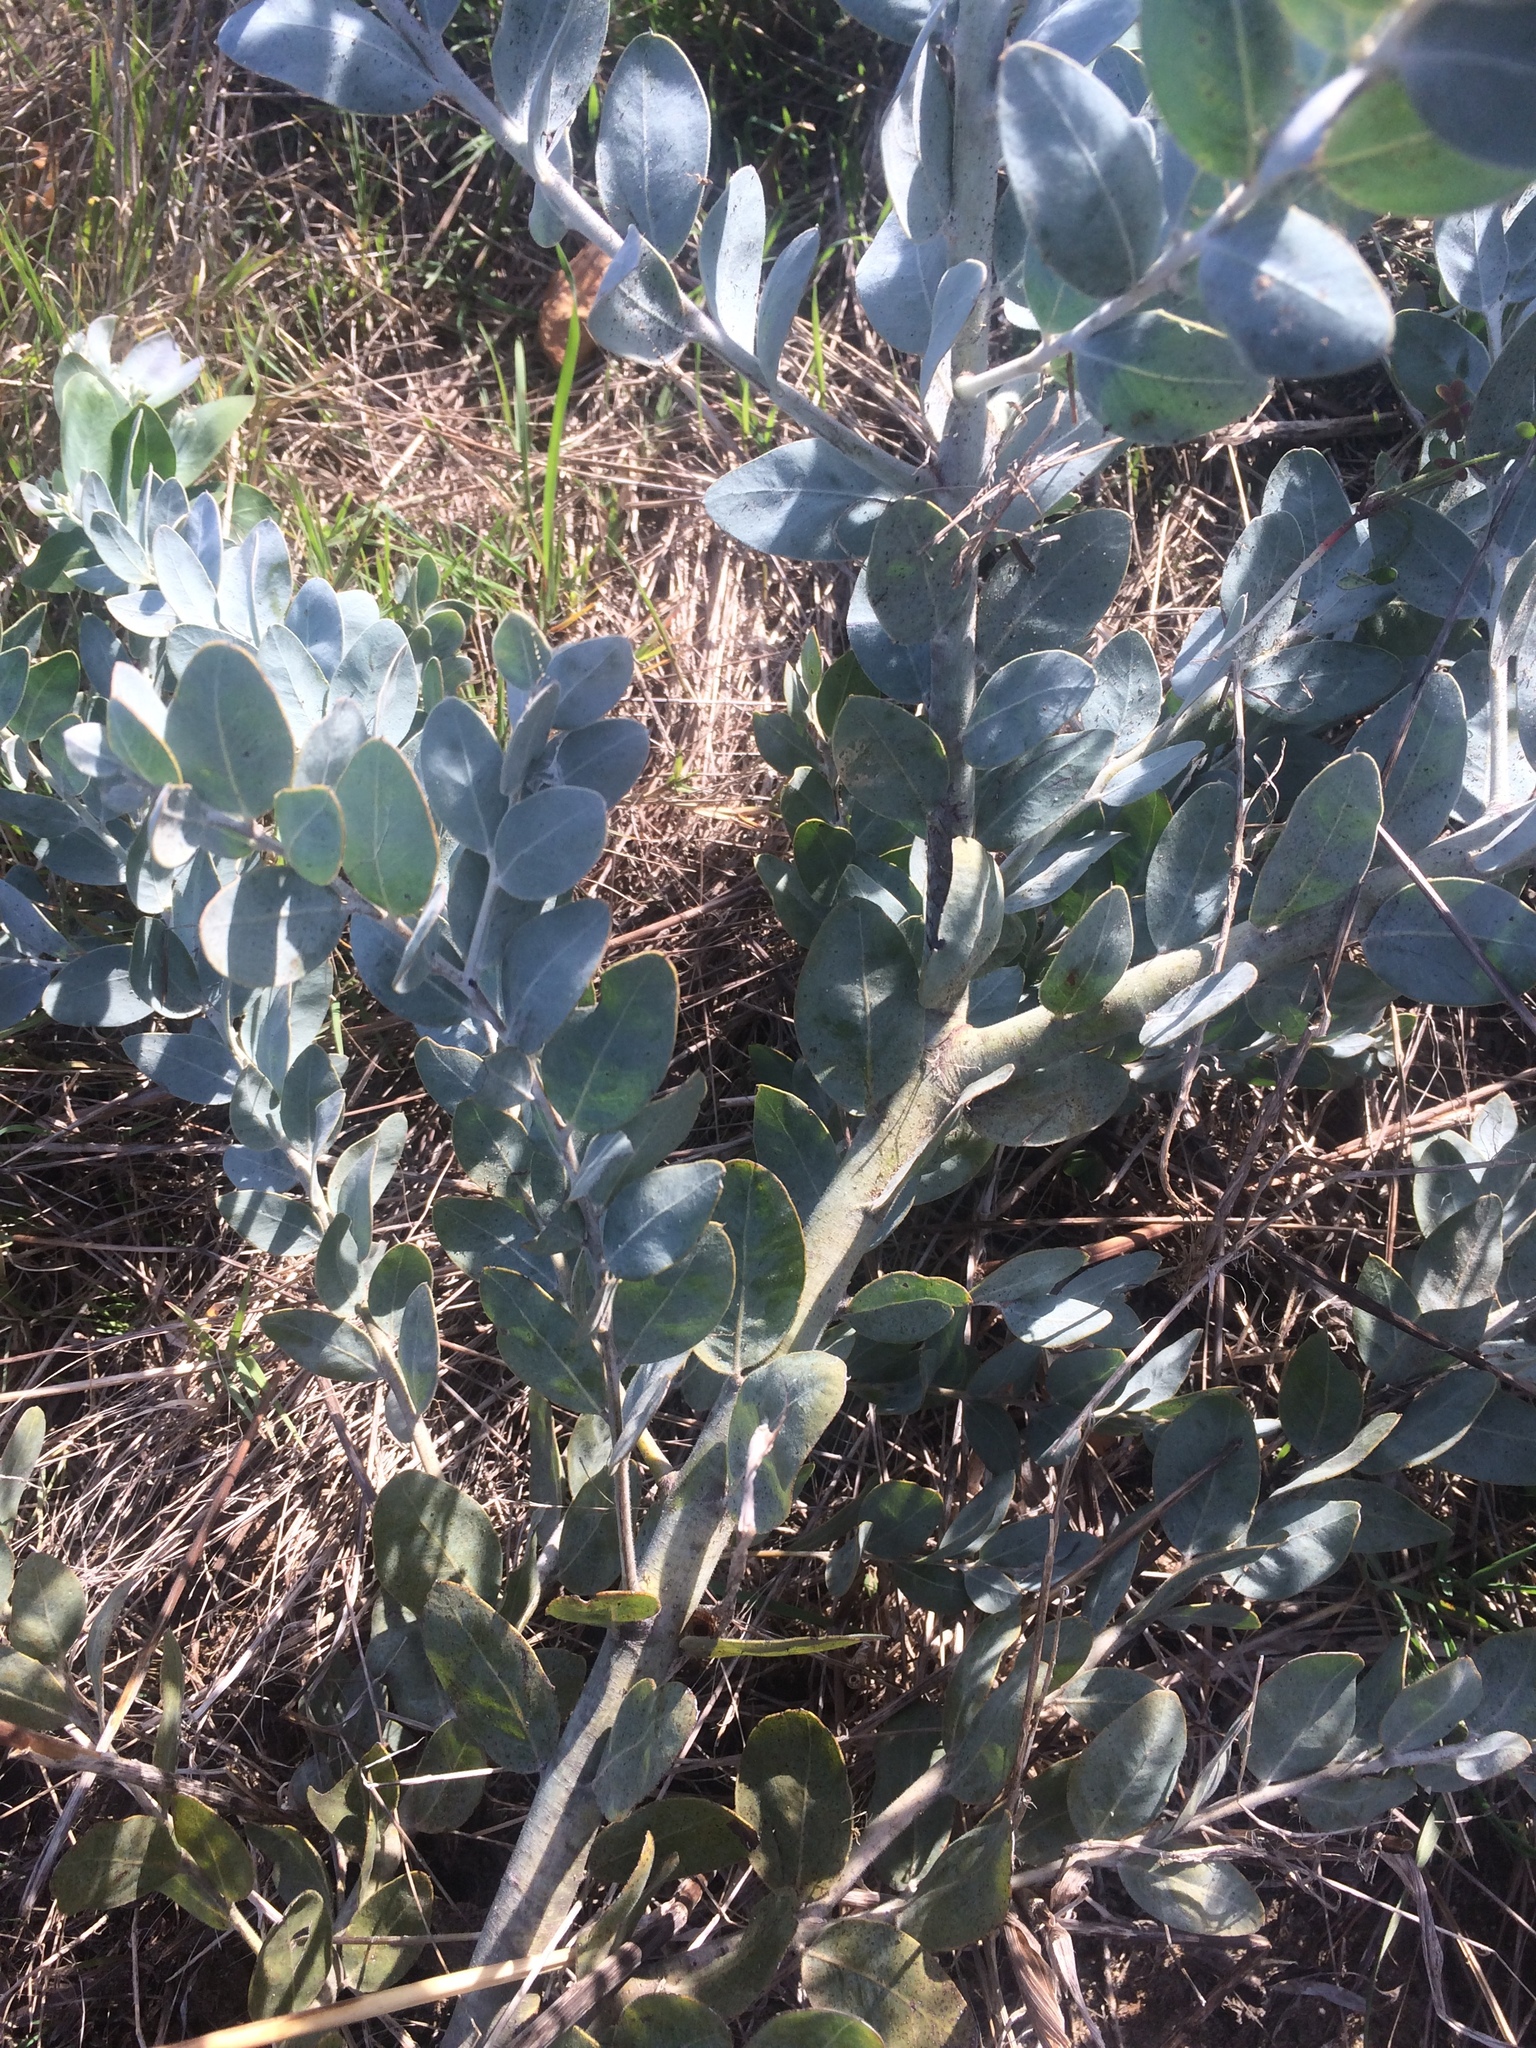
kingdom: Plantae
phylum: Tracheophyta
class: Magnoliopsida
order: Fabales
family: Fabaceae
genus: Acacia
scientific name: Acacia podalyriifolia
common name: Pearl wattle
